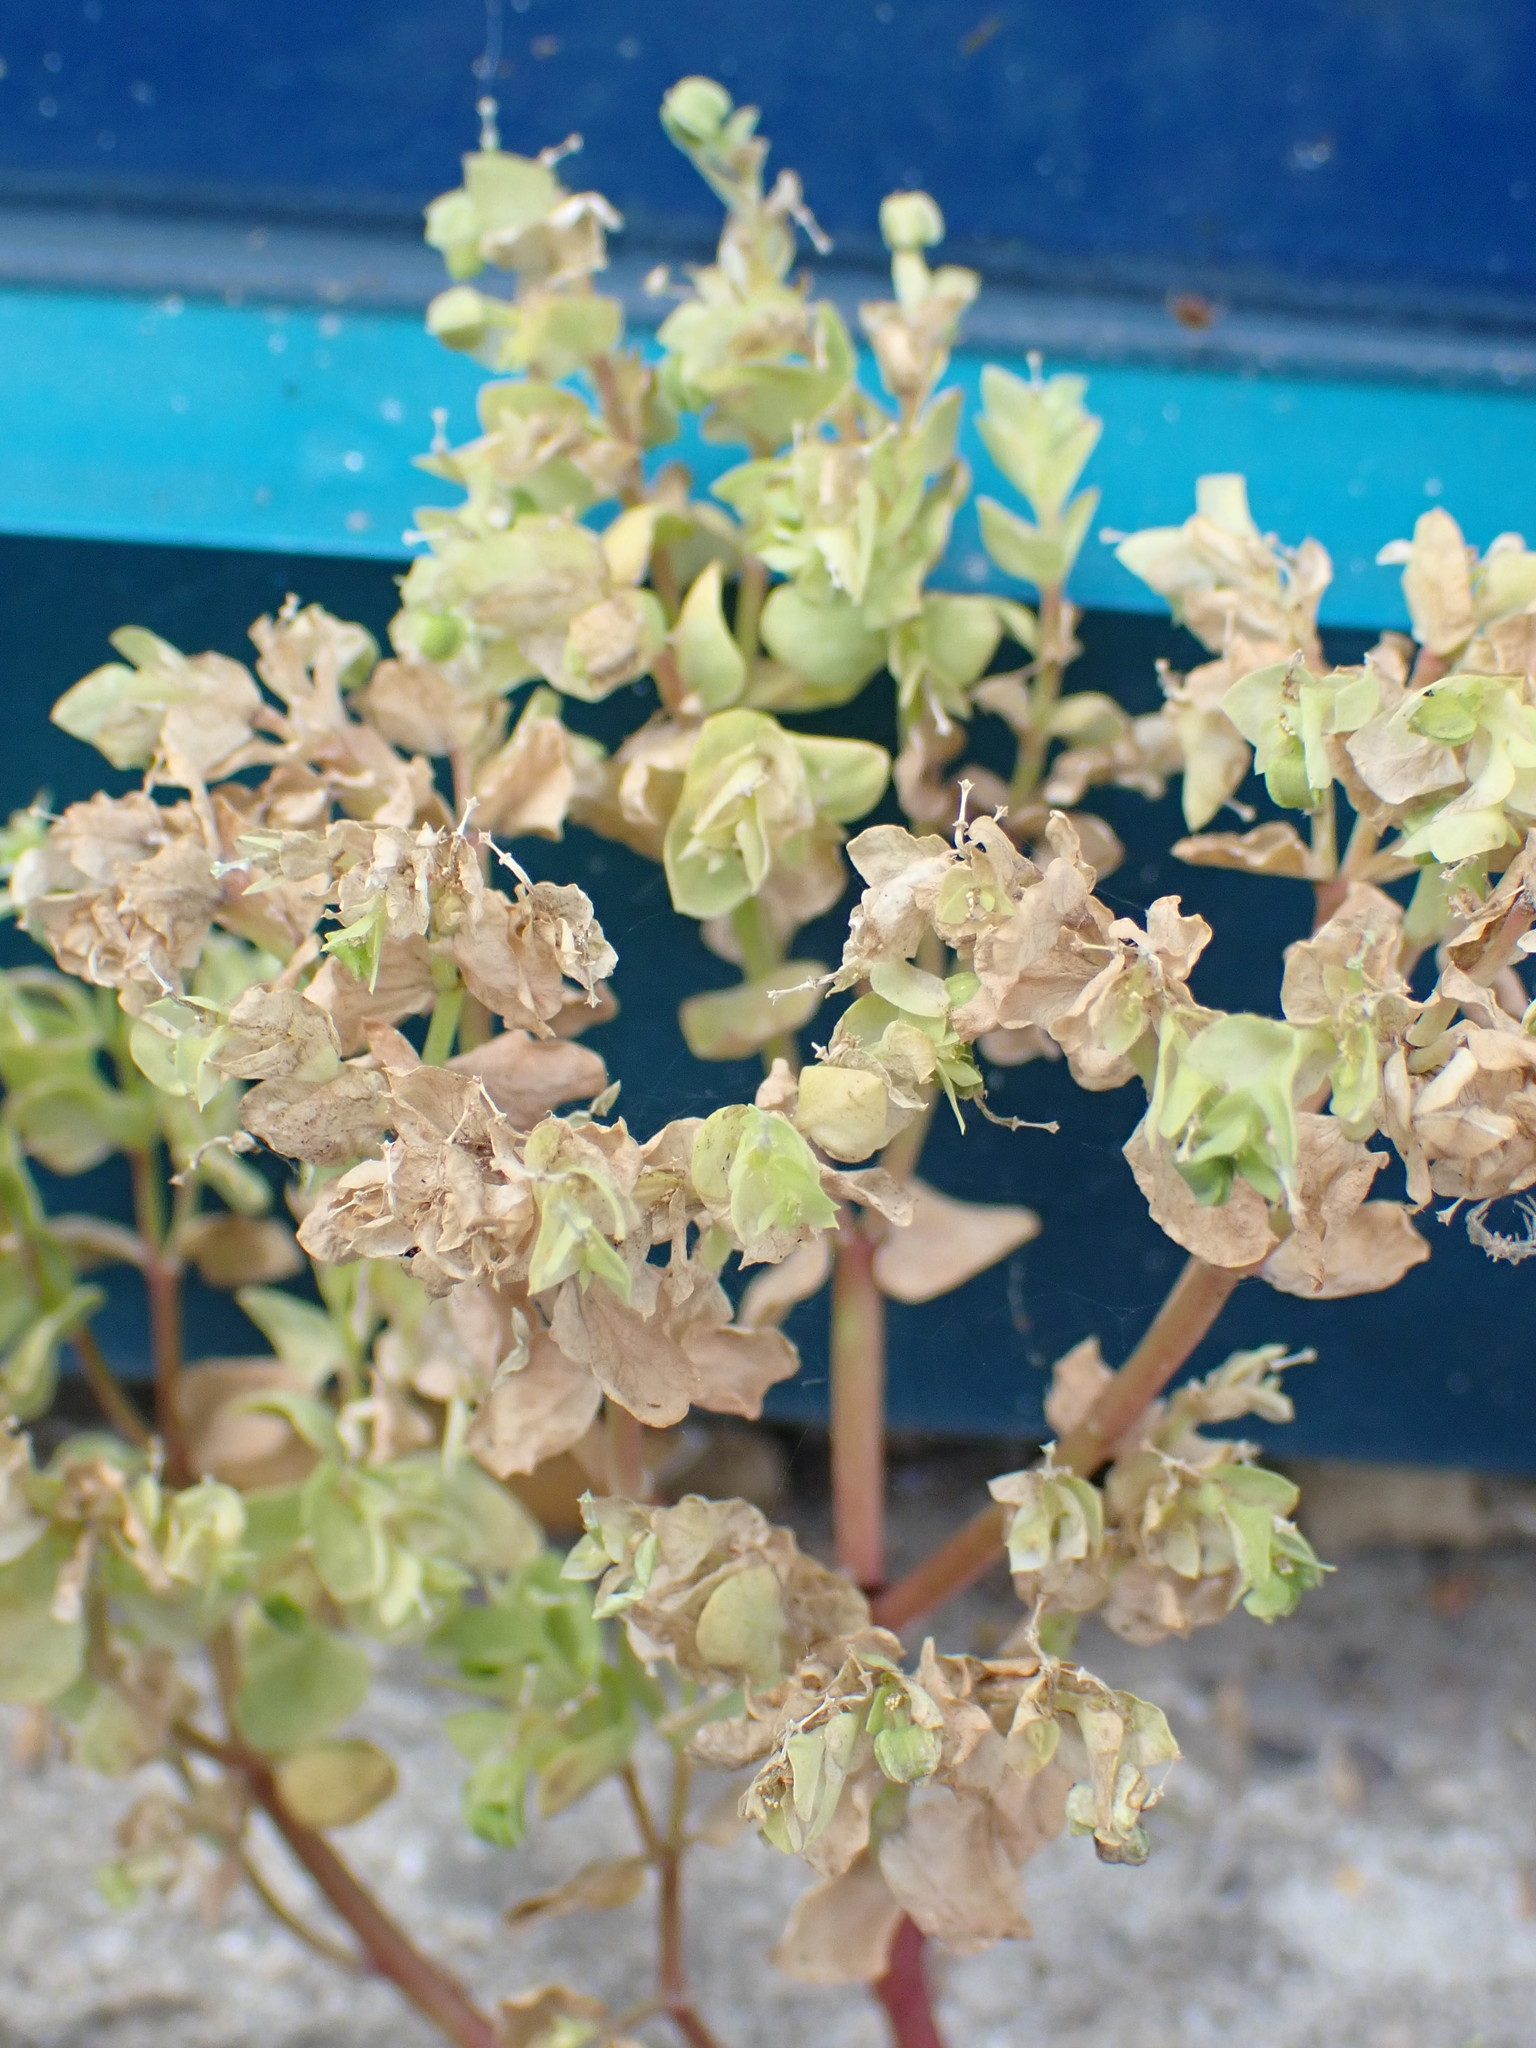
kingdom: Plantae
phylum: Tracheophyta
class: Magnoliopsida
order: Malpighiales
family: Euphorbiaceae
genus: Euphorbia
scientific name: Euphorbia peplus
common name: Petty spurge
